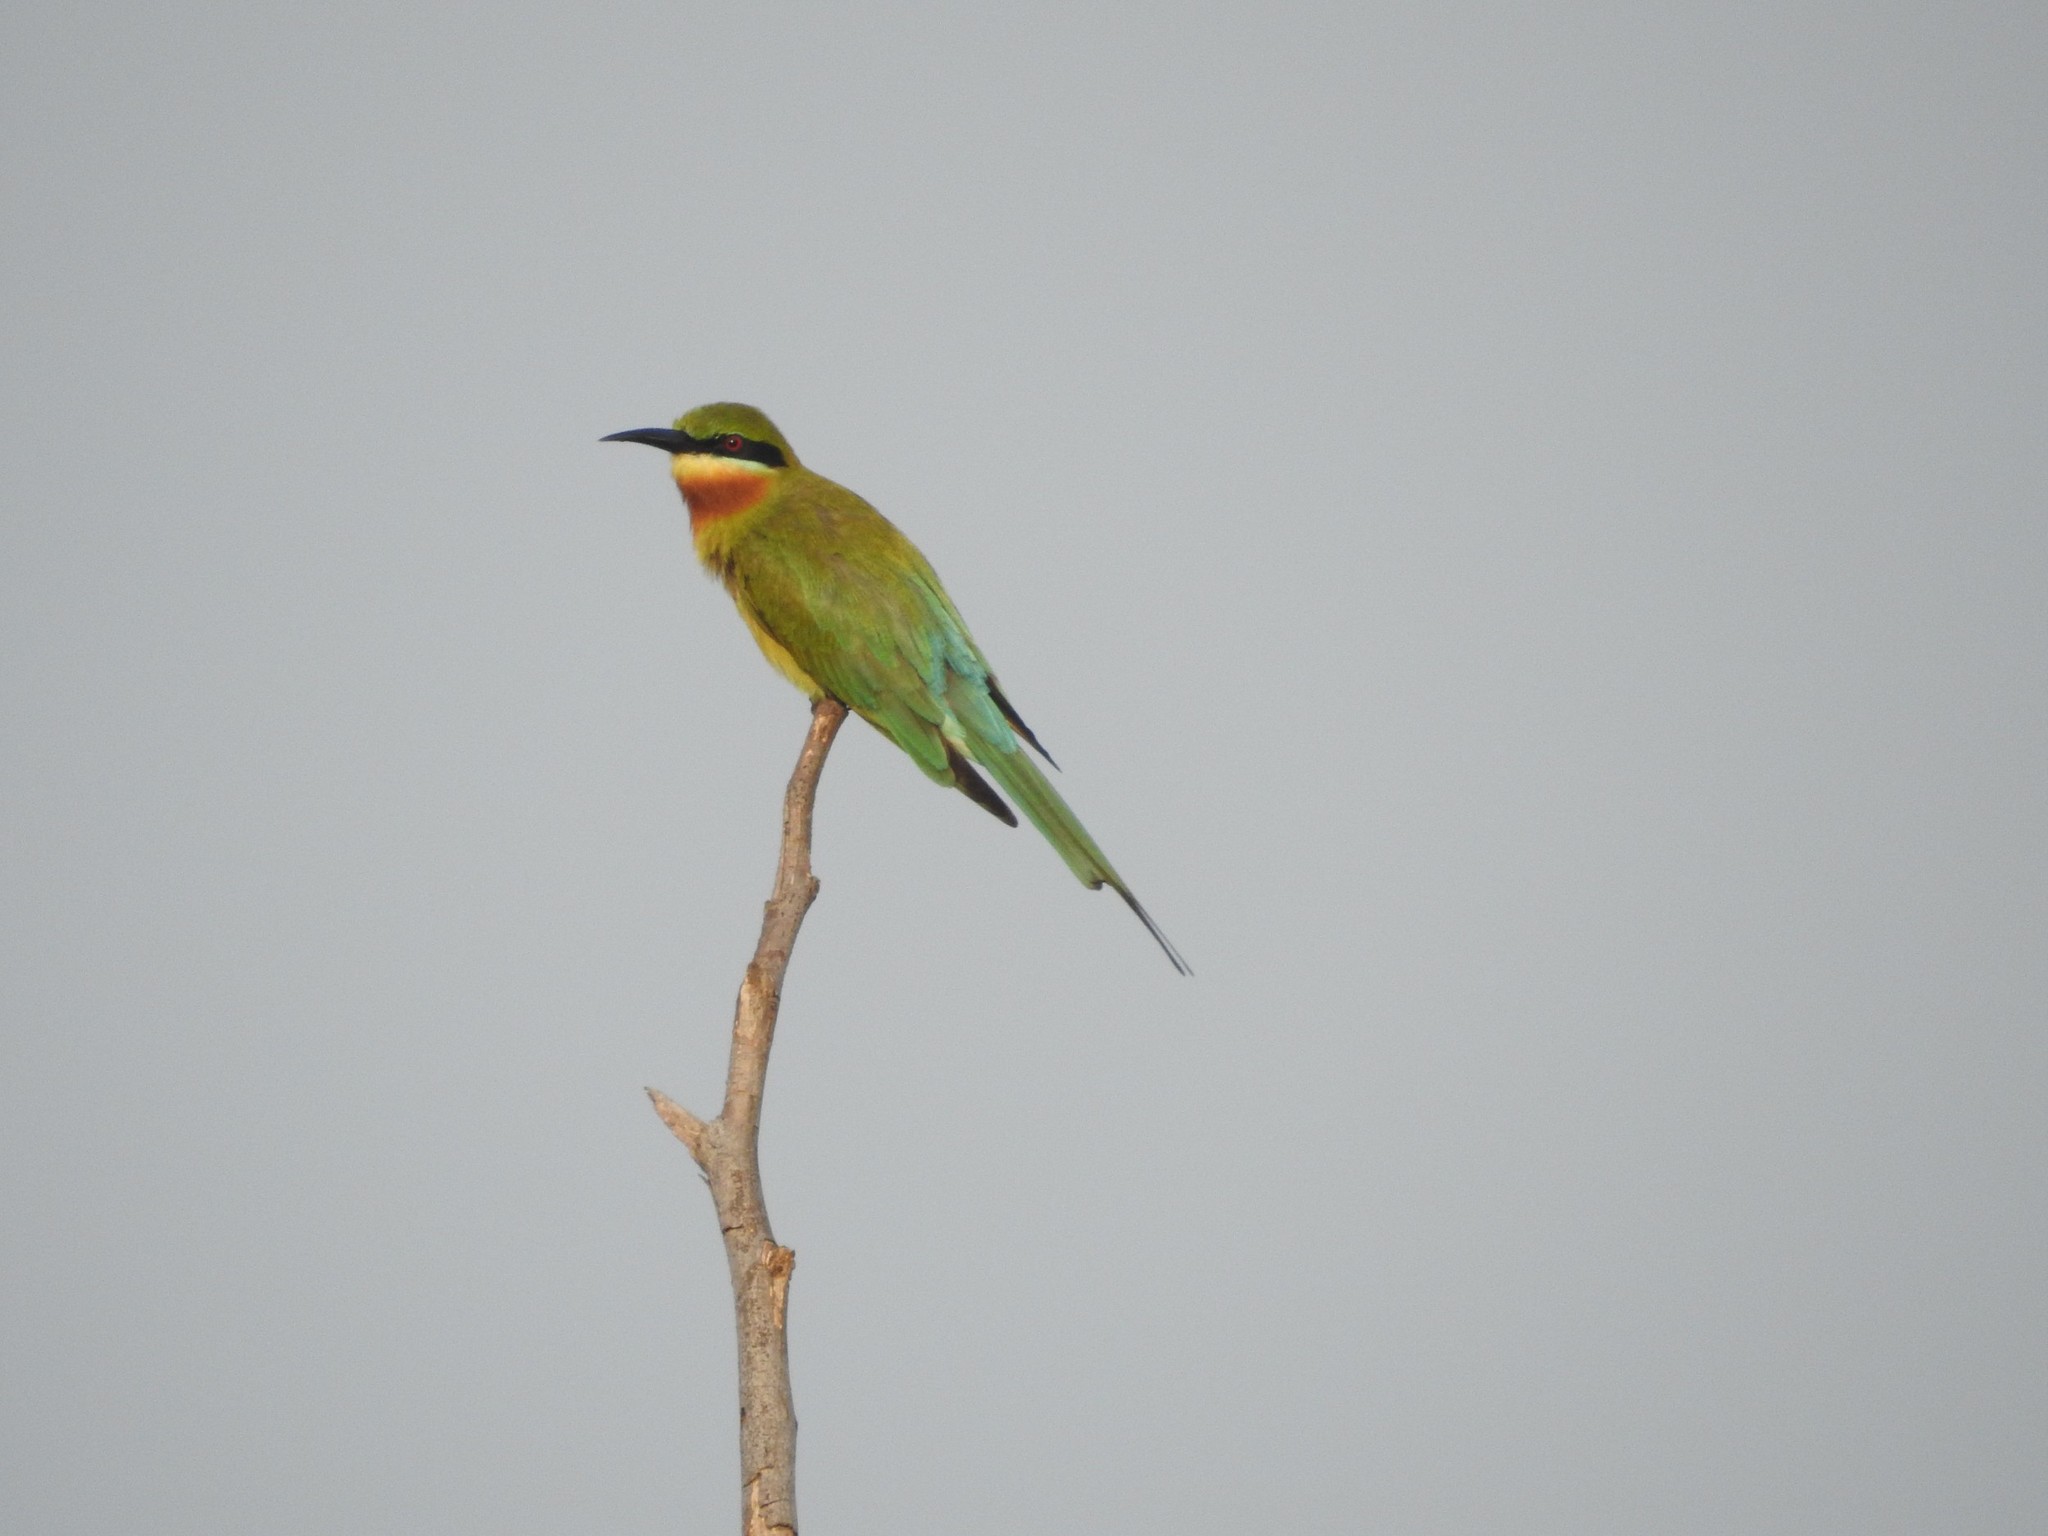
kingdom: Animalia
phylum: Chordata
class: Aves
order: Coraciiformes
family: Meropidae
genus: Merops
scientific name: Merops philippinus
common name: Blue-tailed bee-eater
